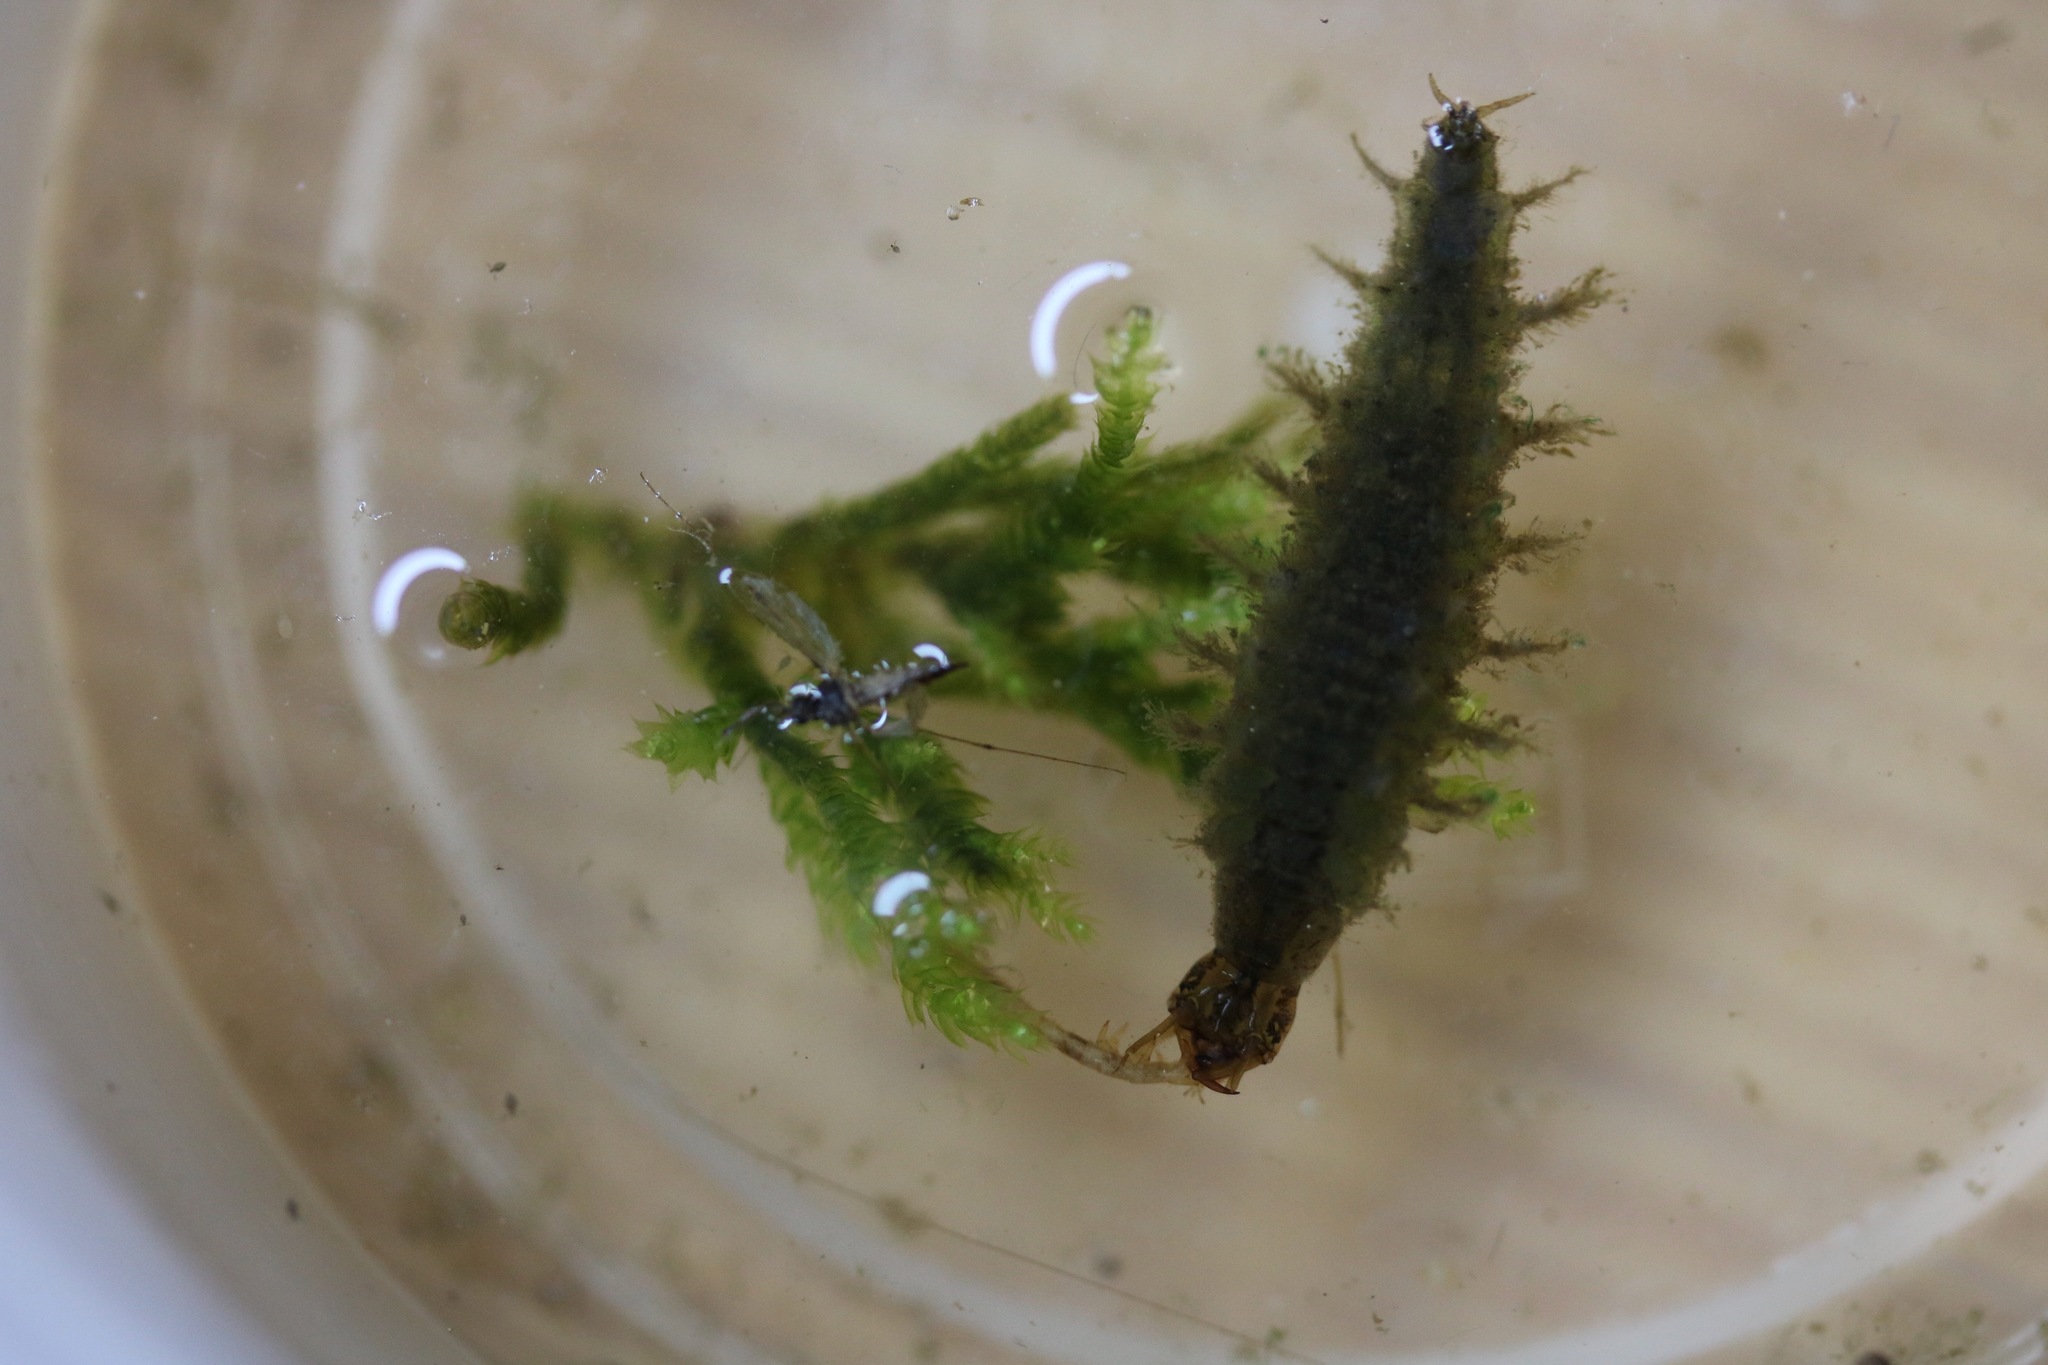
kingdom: Animalia
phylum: Arthropoda
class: Insecta
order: Coleoptera
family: Hydrophilidae
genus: Hydrochara
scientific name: Hydrochara
